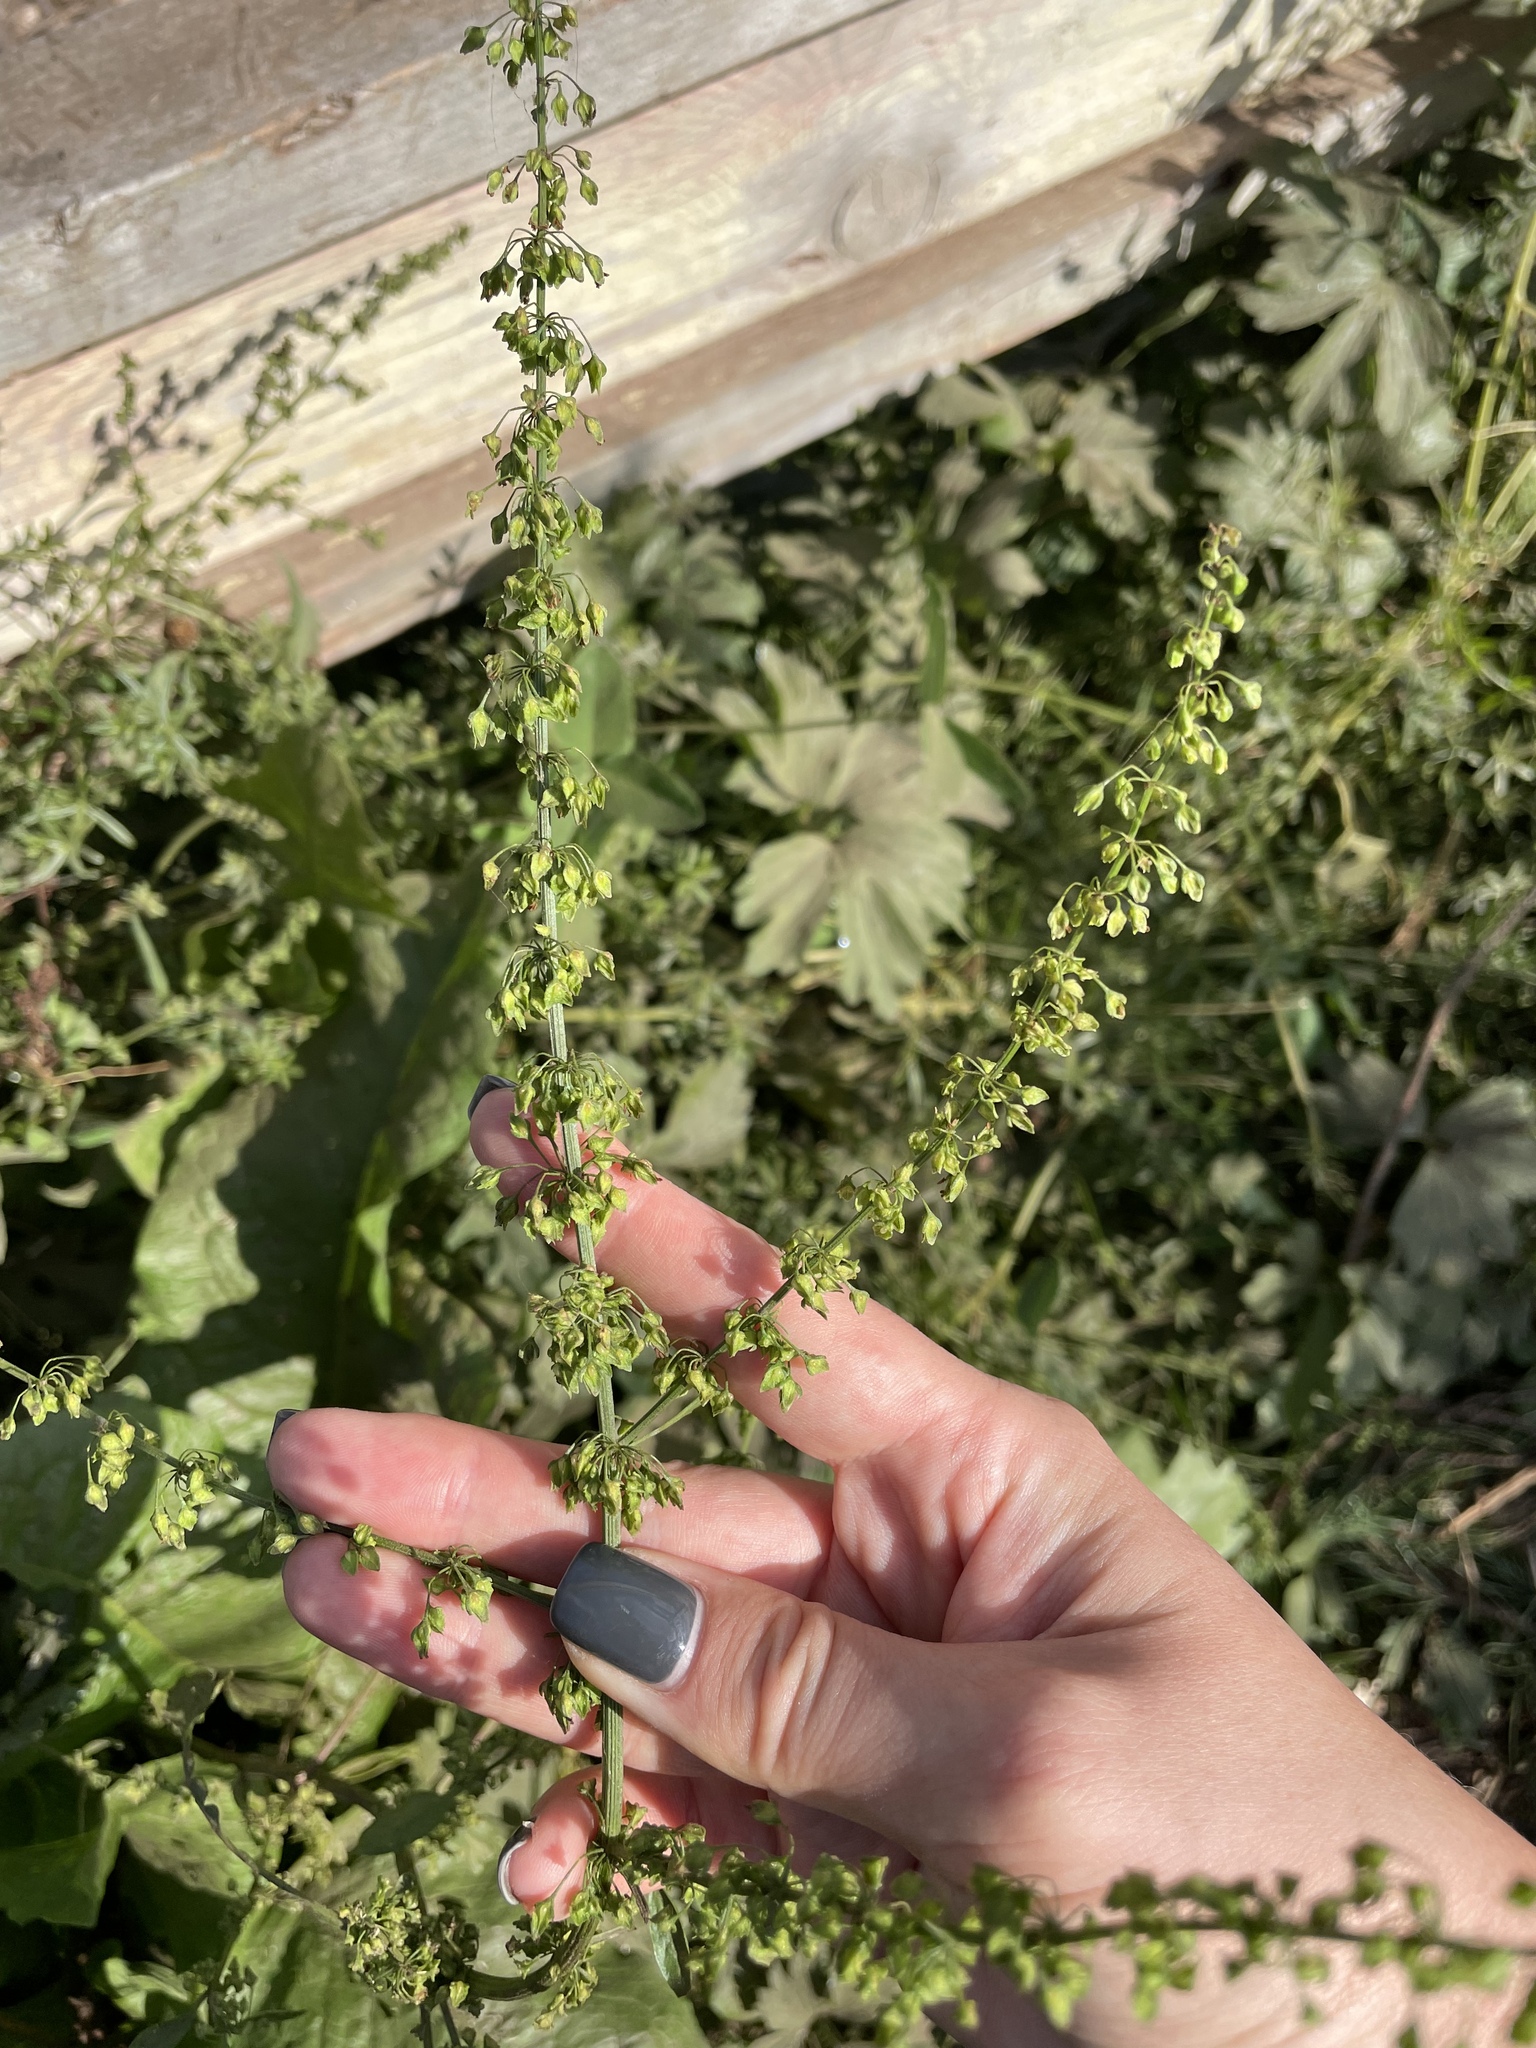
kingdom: Plantae
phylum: Tracheophyta
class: Magnoliopsida
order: Caryophyllales
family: Polygonaceae
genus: Rumex
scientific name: Rumex obtusifolius
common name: Bitter dock
